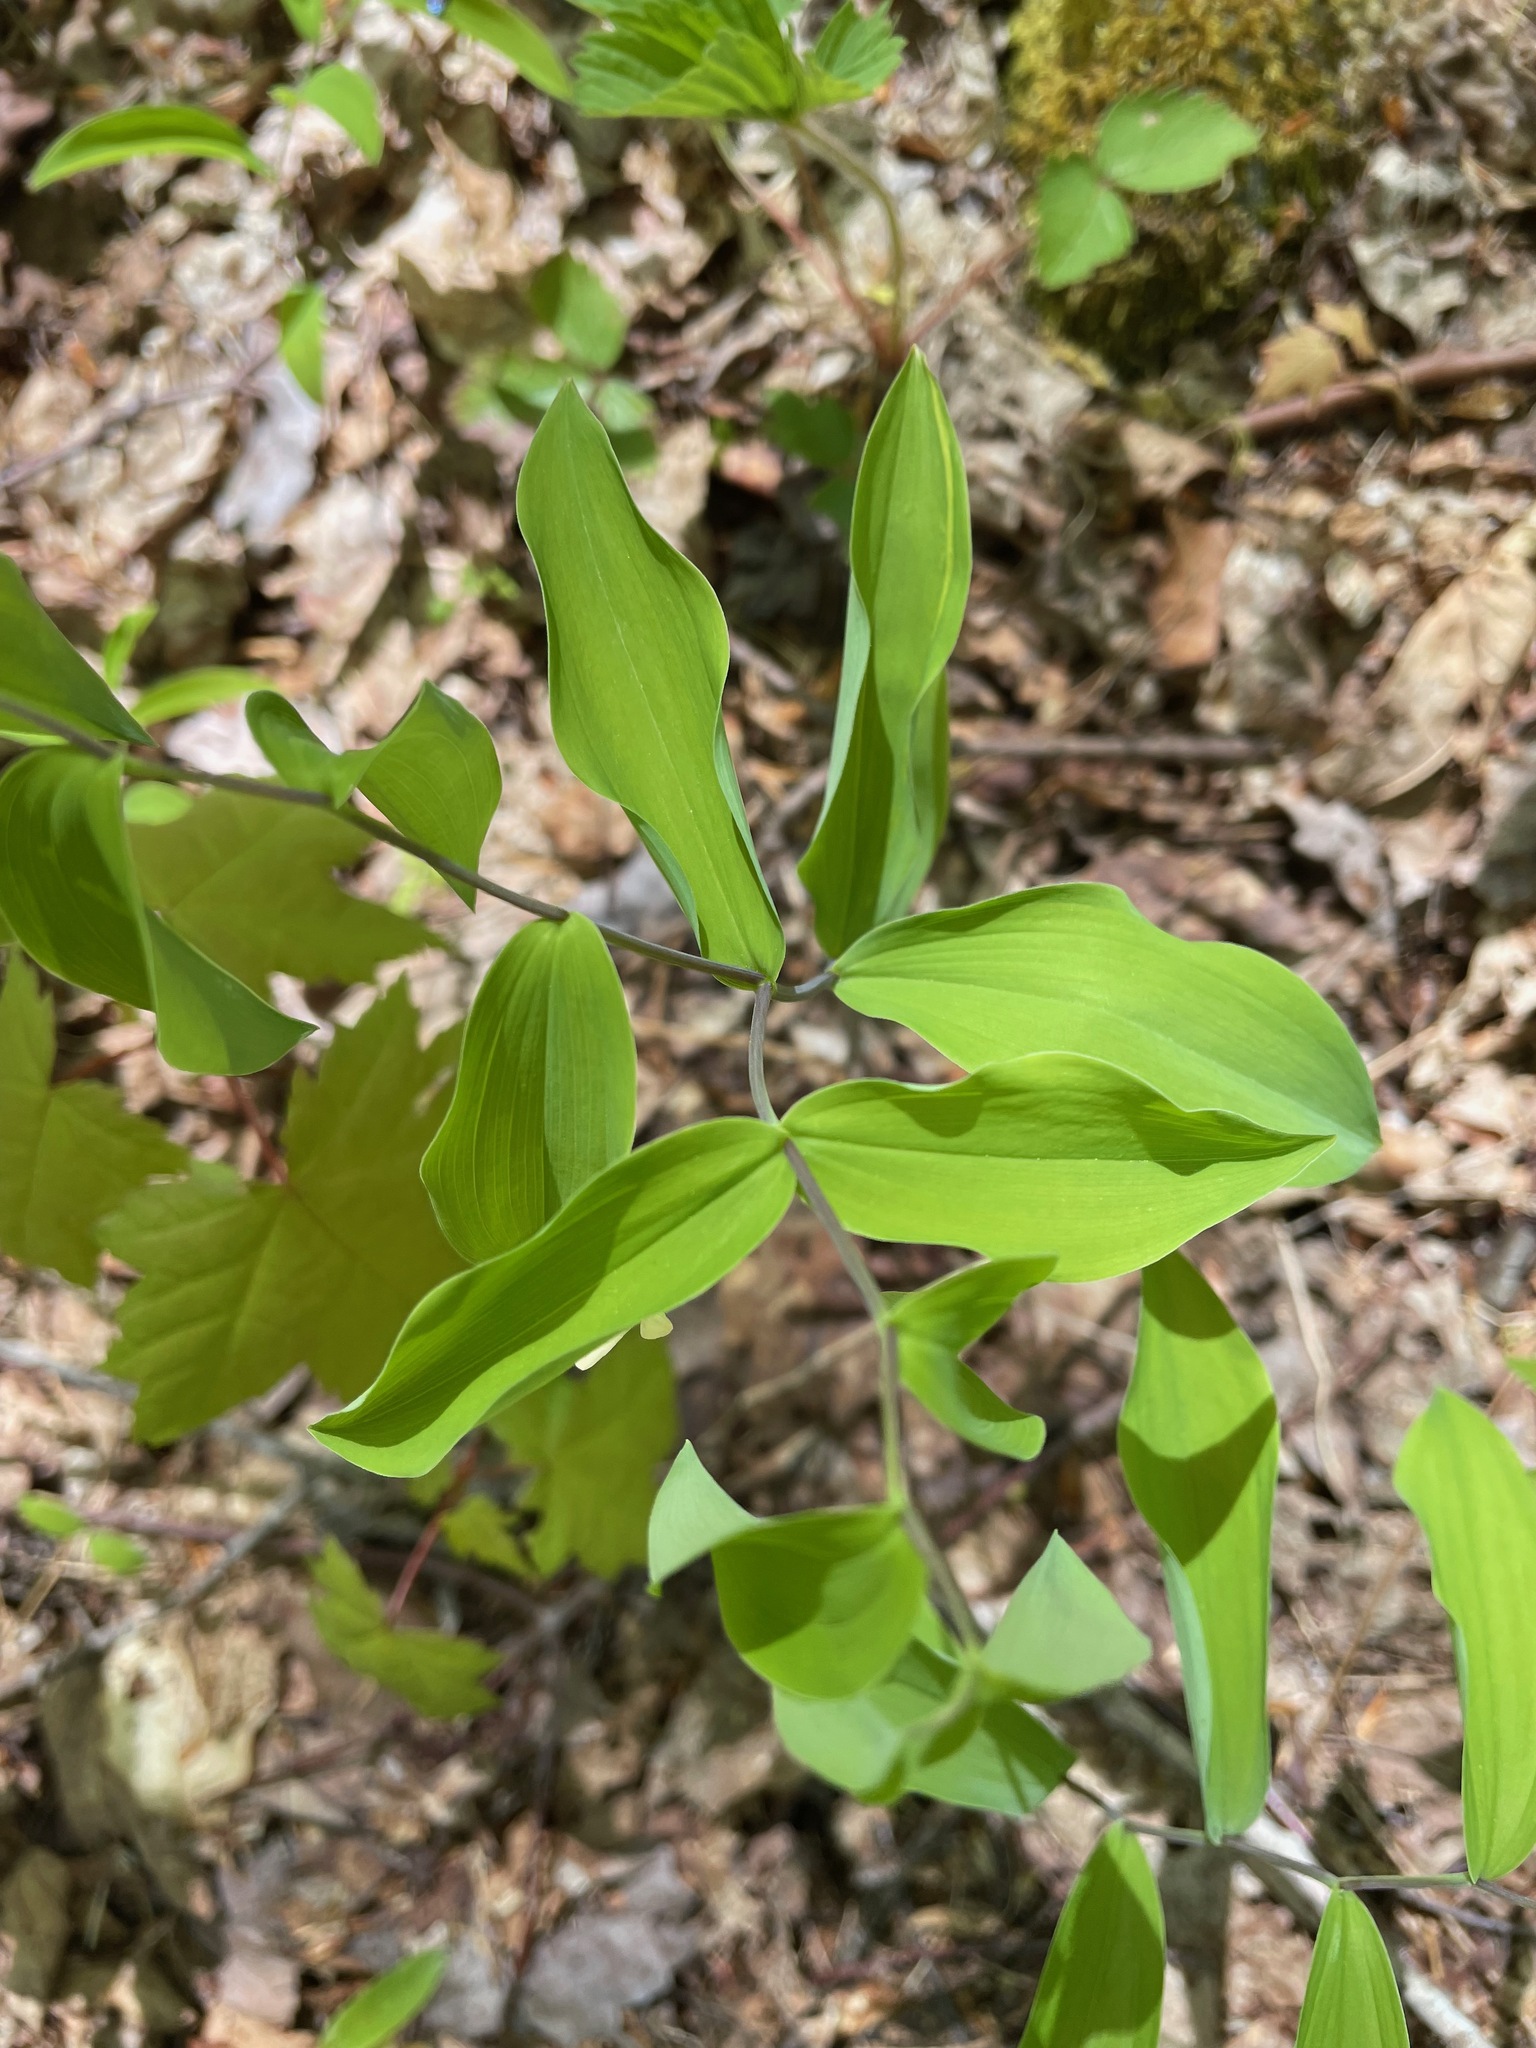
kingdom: Plantae
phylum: Tracheophyta
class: Liliopsida
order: Liliales
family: Colchicaceae
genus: Uvularia
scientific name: Uvularia sessilifolia
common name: Straw-lily
